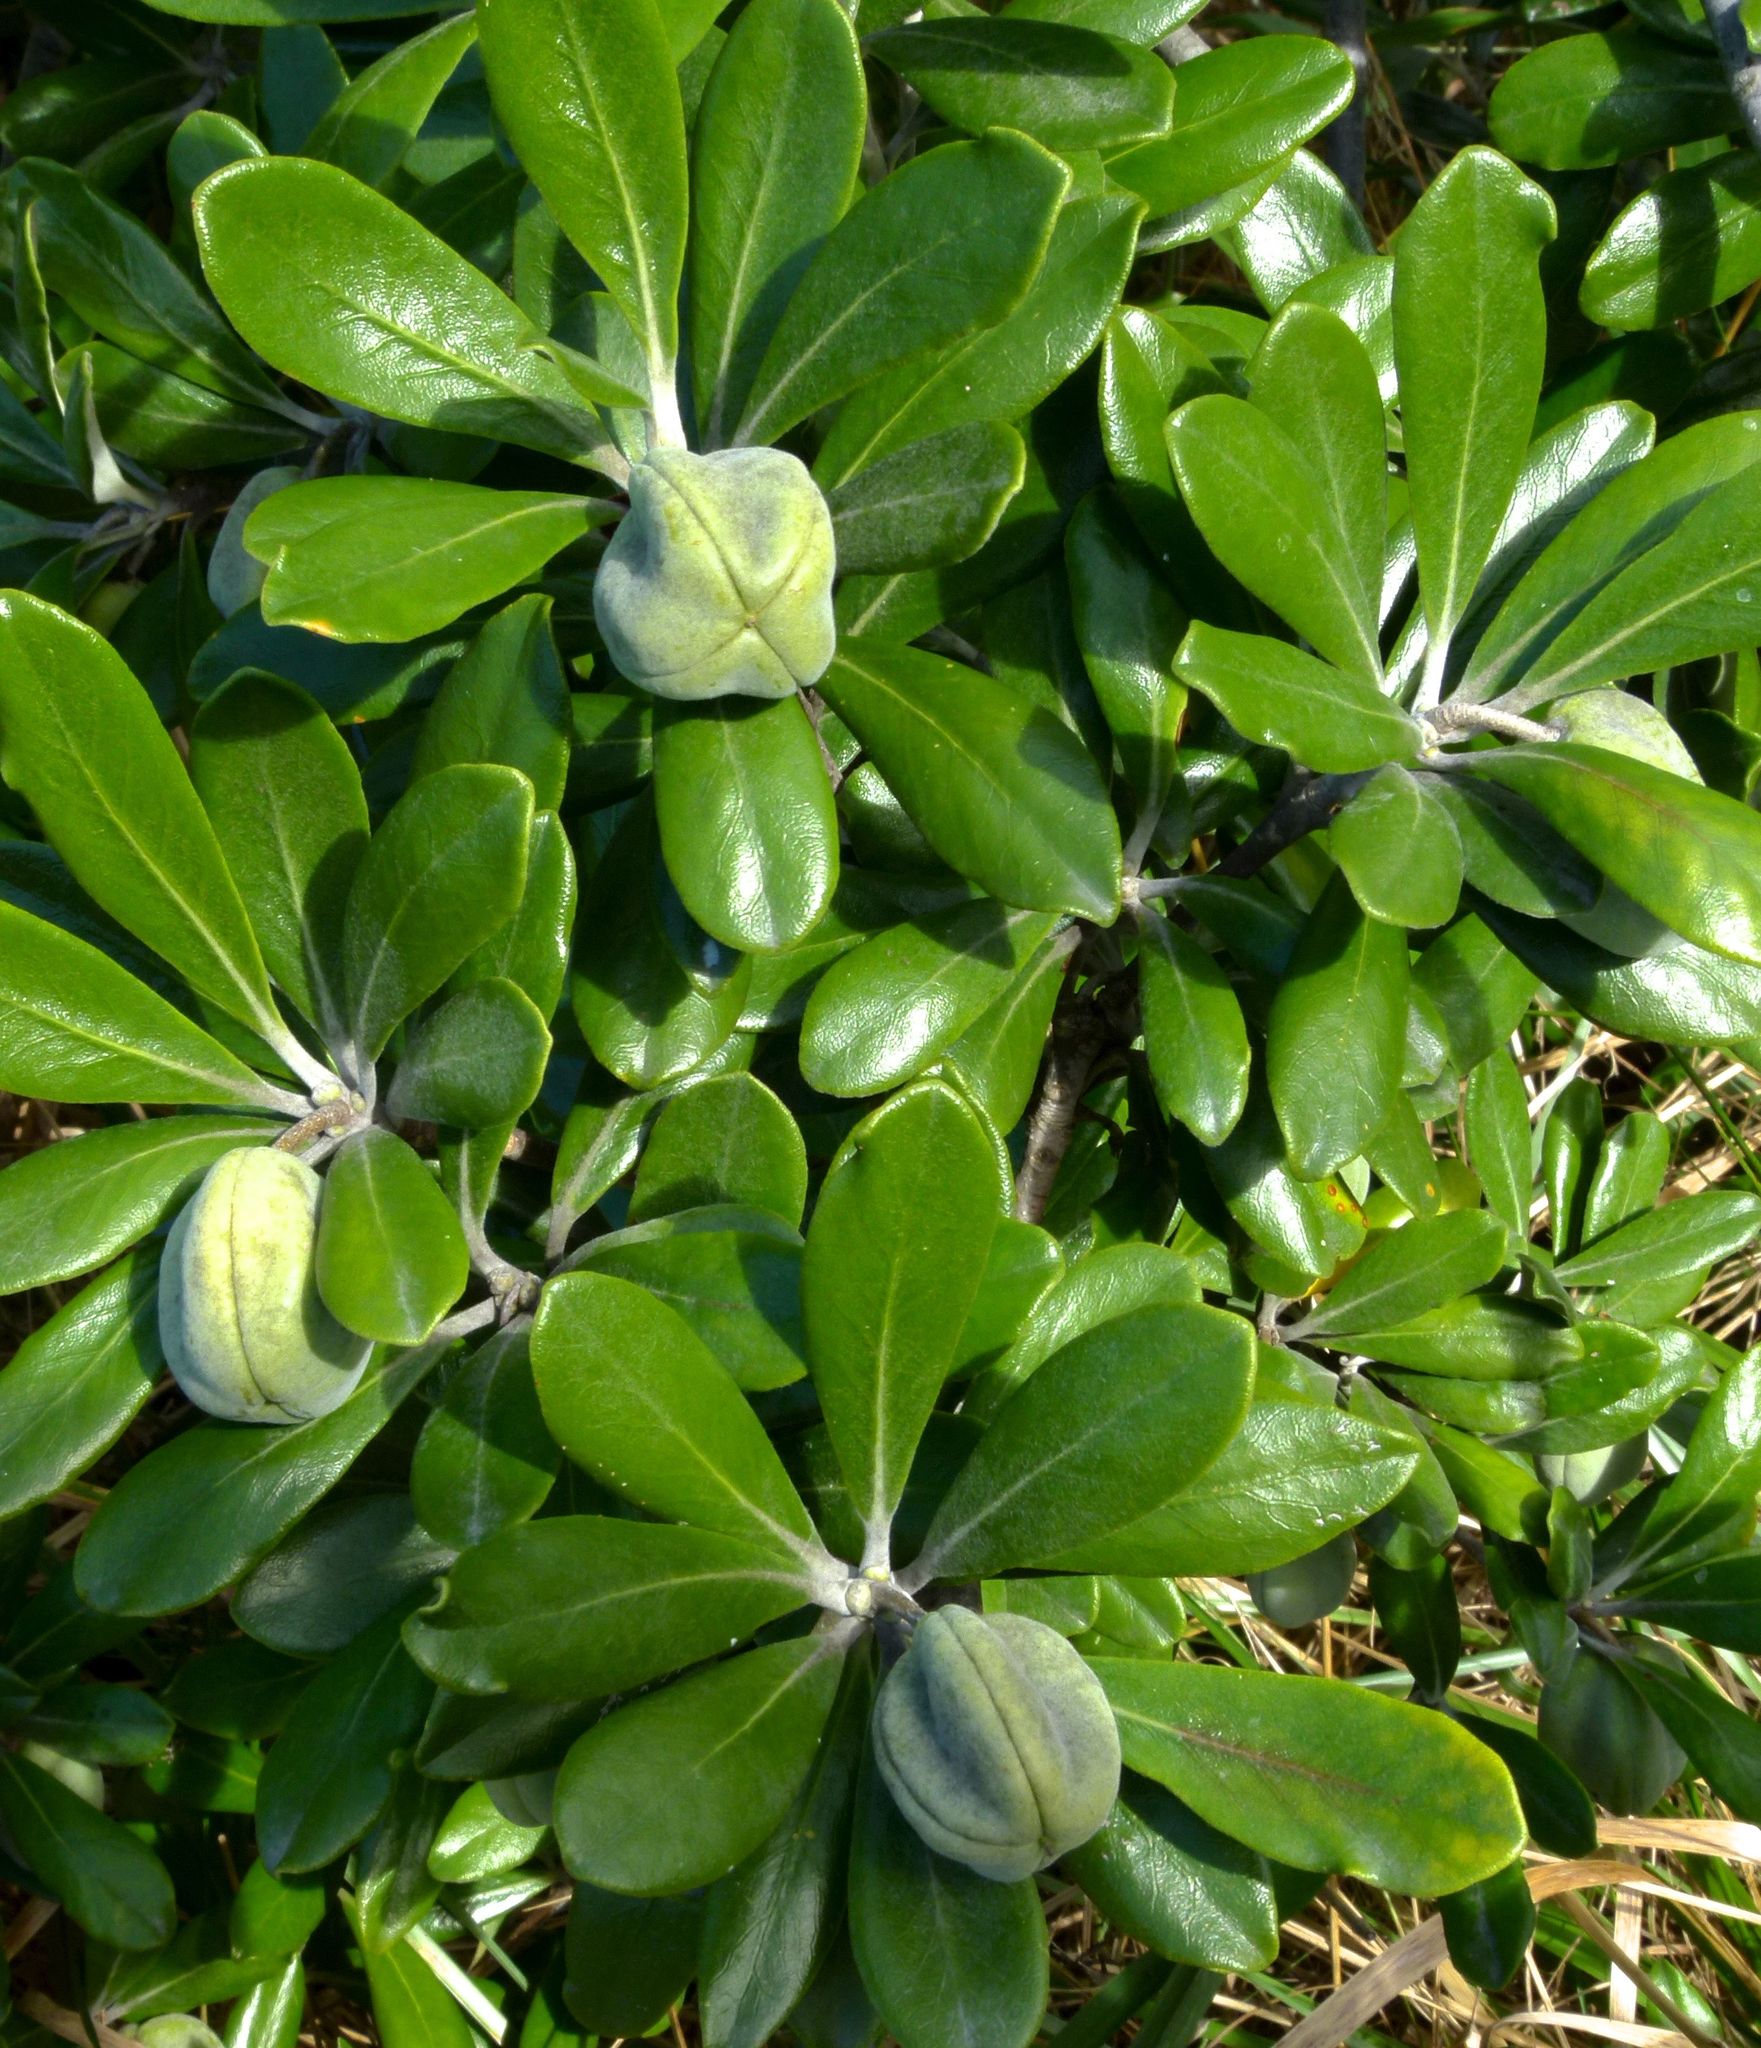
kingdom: Plantae
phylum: Tracheophyta
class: Magnoliopsida
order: Apiales
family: Pittosporaceae
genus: Pittosporum
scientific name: Pittosporum crassifolium
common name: Karo
